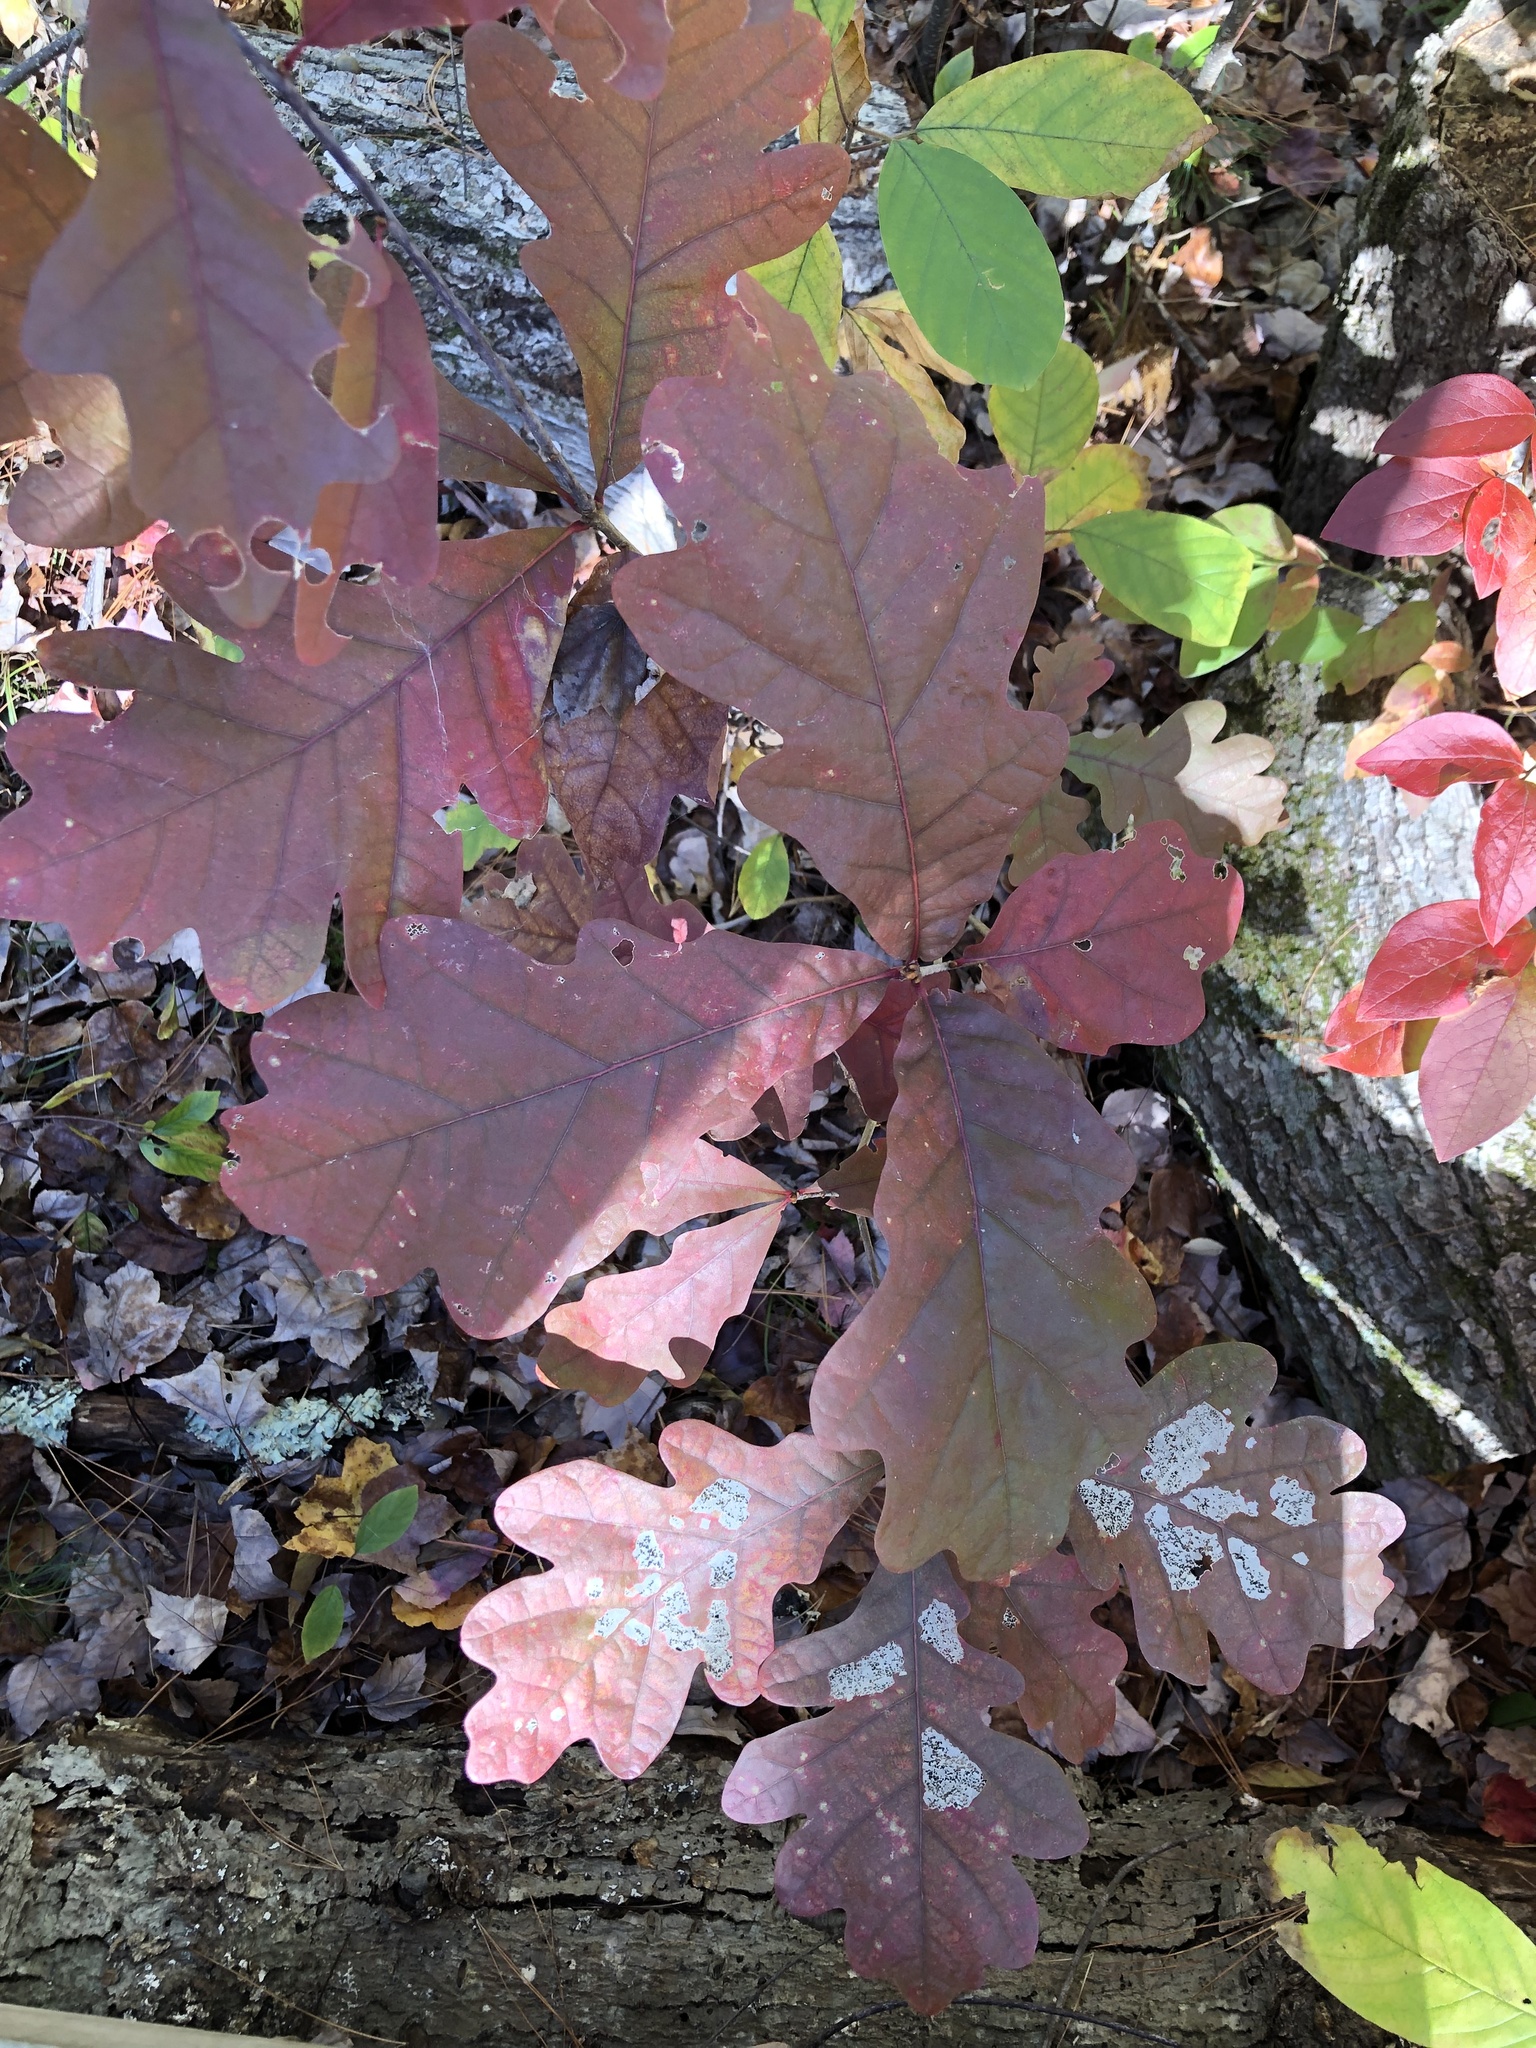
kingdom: Plantae
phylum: Tracheophyta
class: Magnoliopsida
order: Fagales
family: Fagaceae
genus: Quercus
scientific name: Quercus alba
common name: White oak
